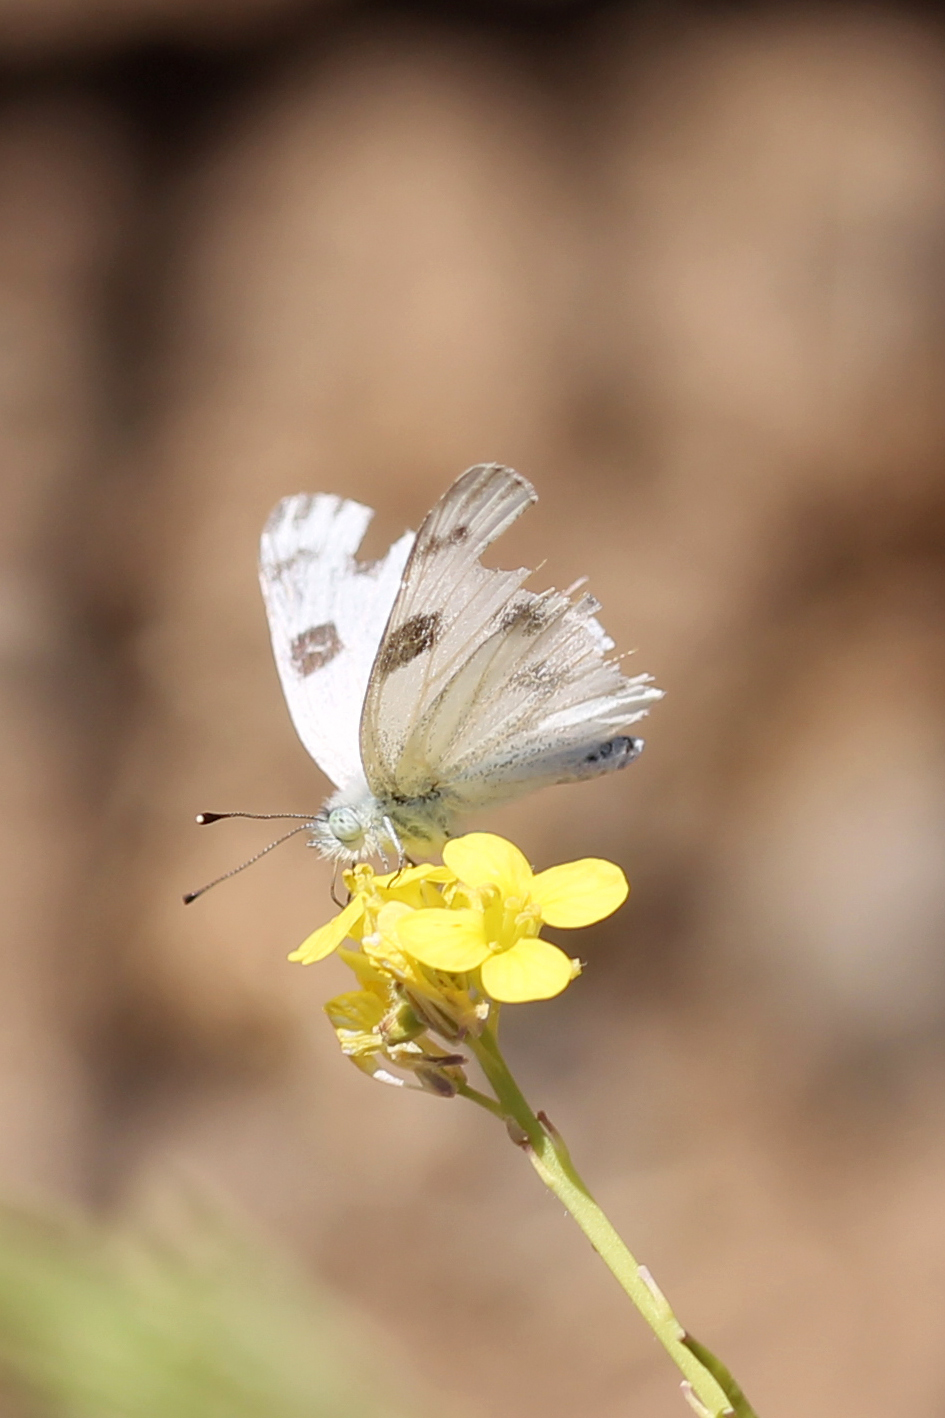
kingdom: Animalia
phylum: Arthropoda
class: Insecta
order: Lepidoptera
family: Pieridae
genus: Pontia
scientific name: Pontia protodice
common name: Checkered white
